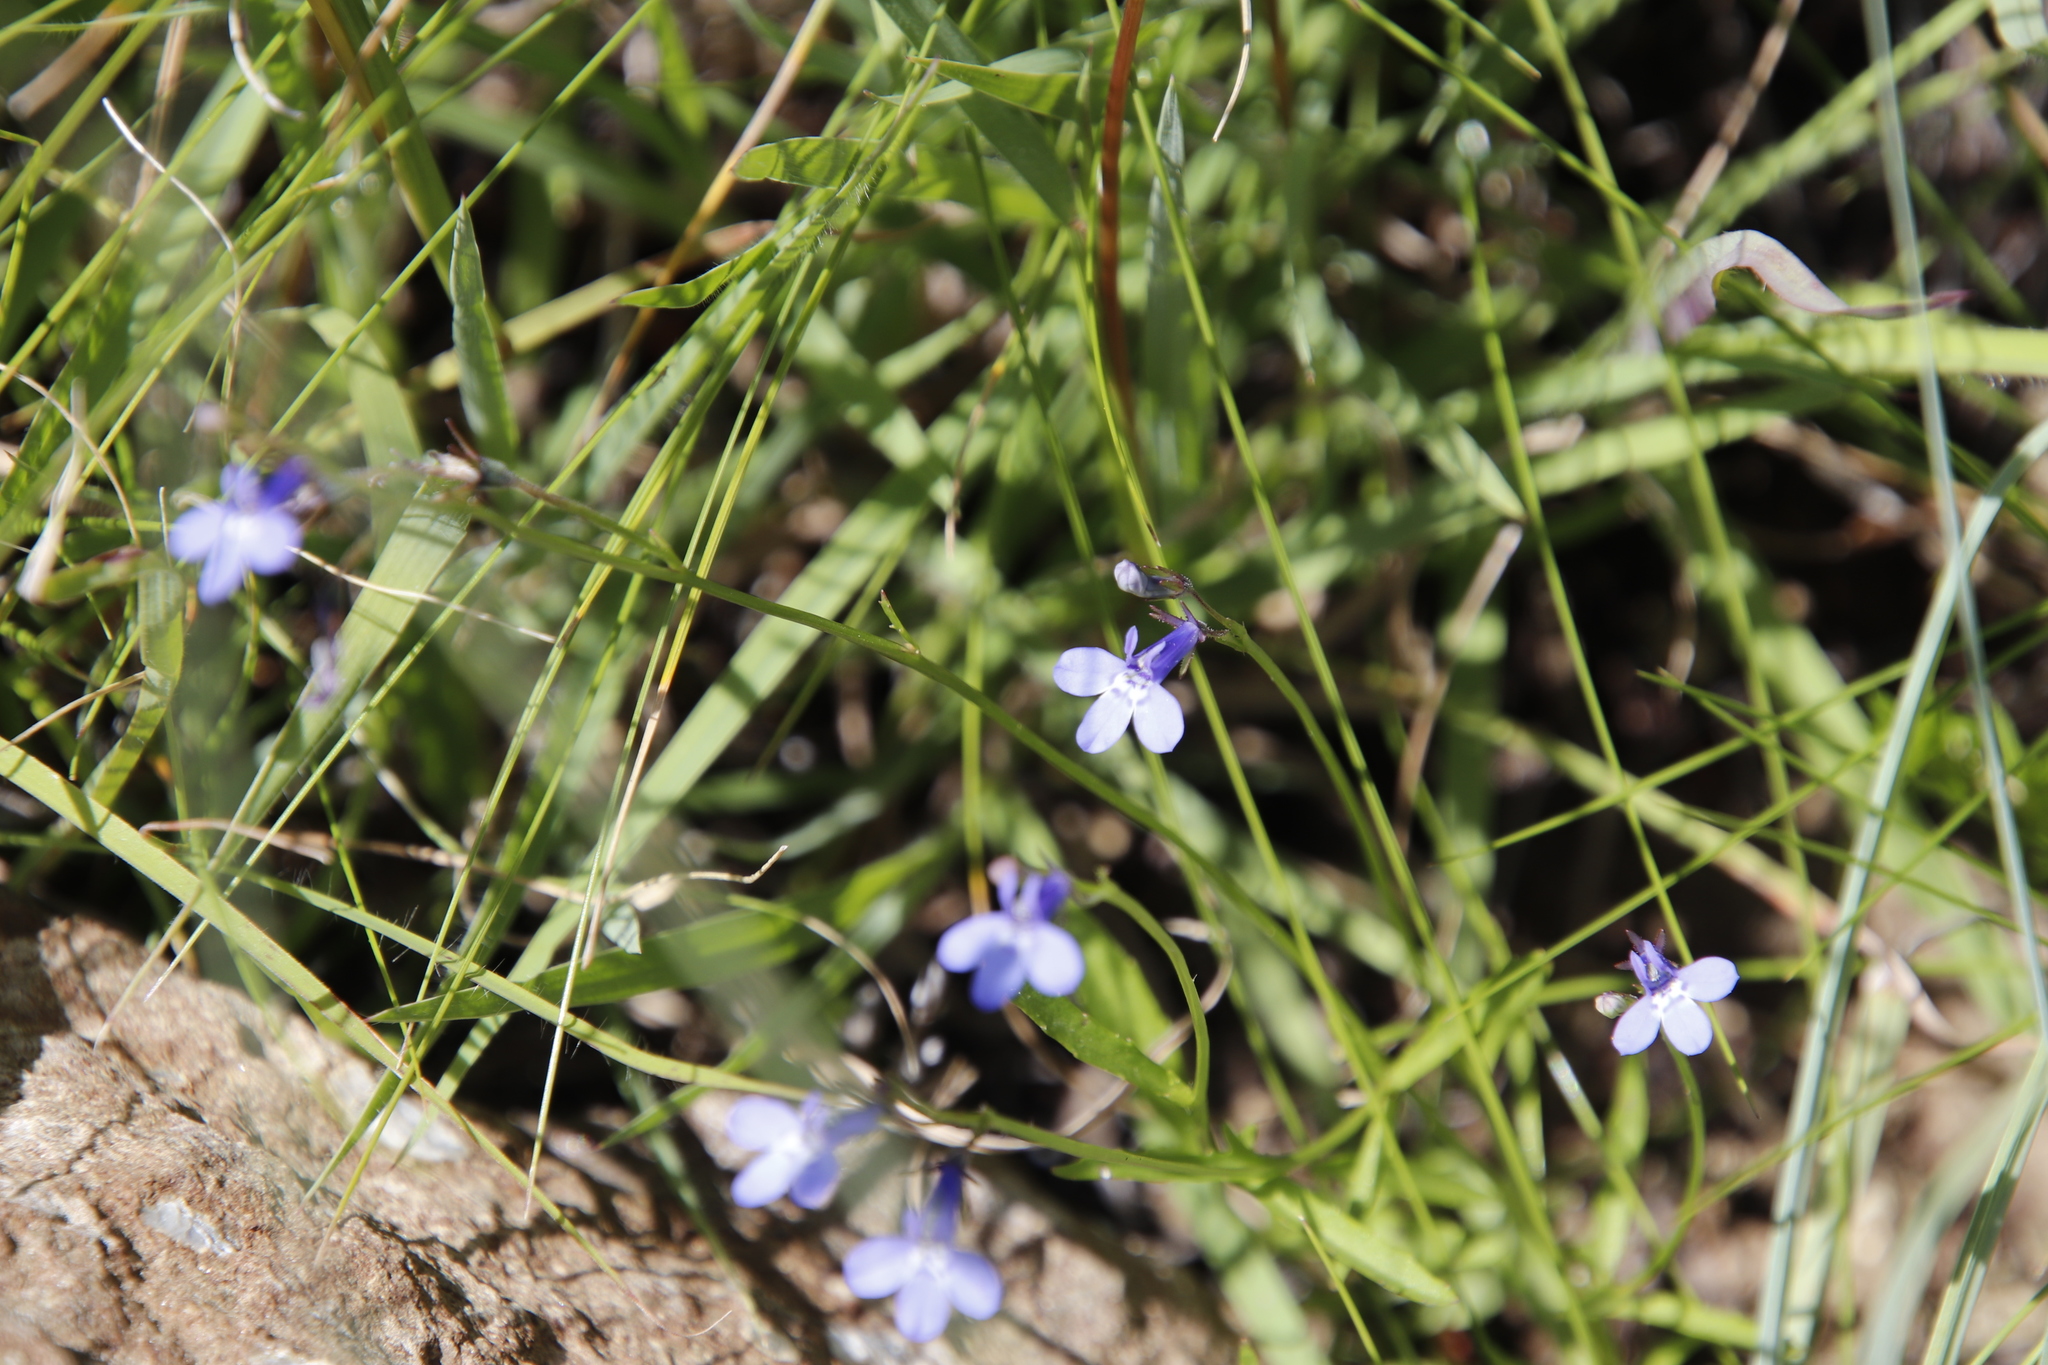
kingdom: Plantae
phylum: Tracheophyta
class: Magnoliopsida
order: Asterales
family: Campanulaceae
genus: Lobelia
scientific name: Lobelia flaccida
